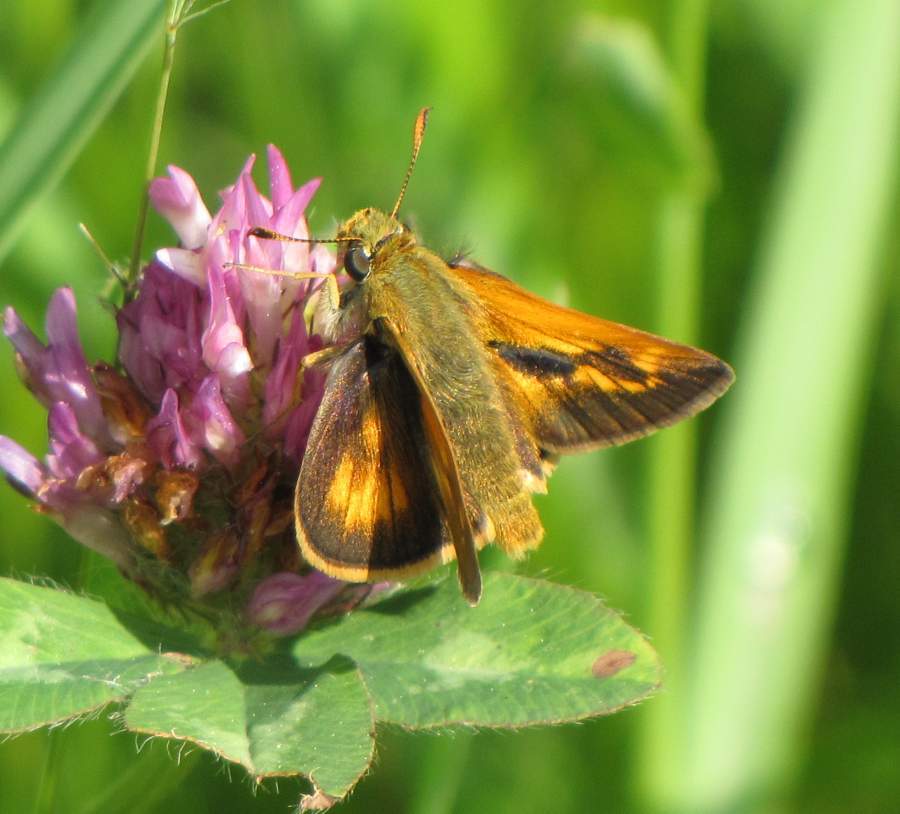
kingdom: Animalia
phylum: Arthropoda
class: Insecta
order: Lepidoptera
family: Hesperiidae
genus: Polites
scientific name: Polites mystic
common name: Long dash
